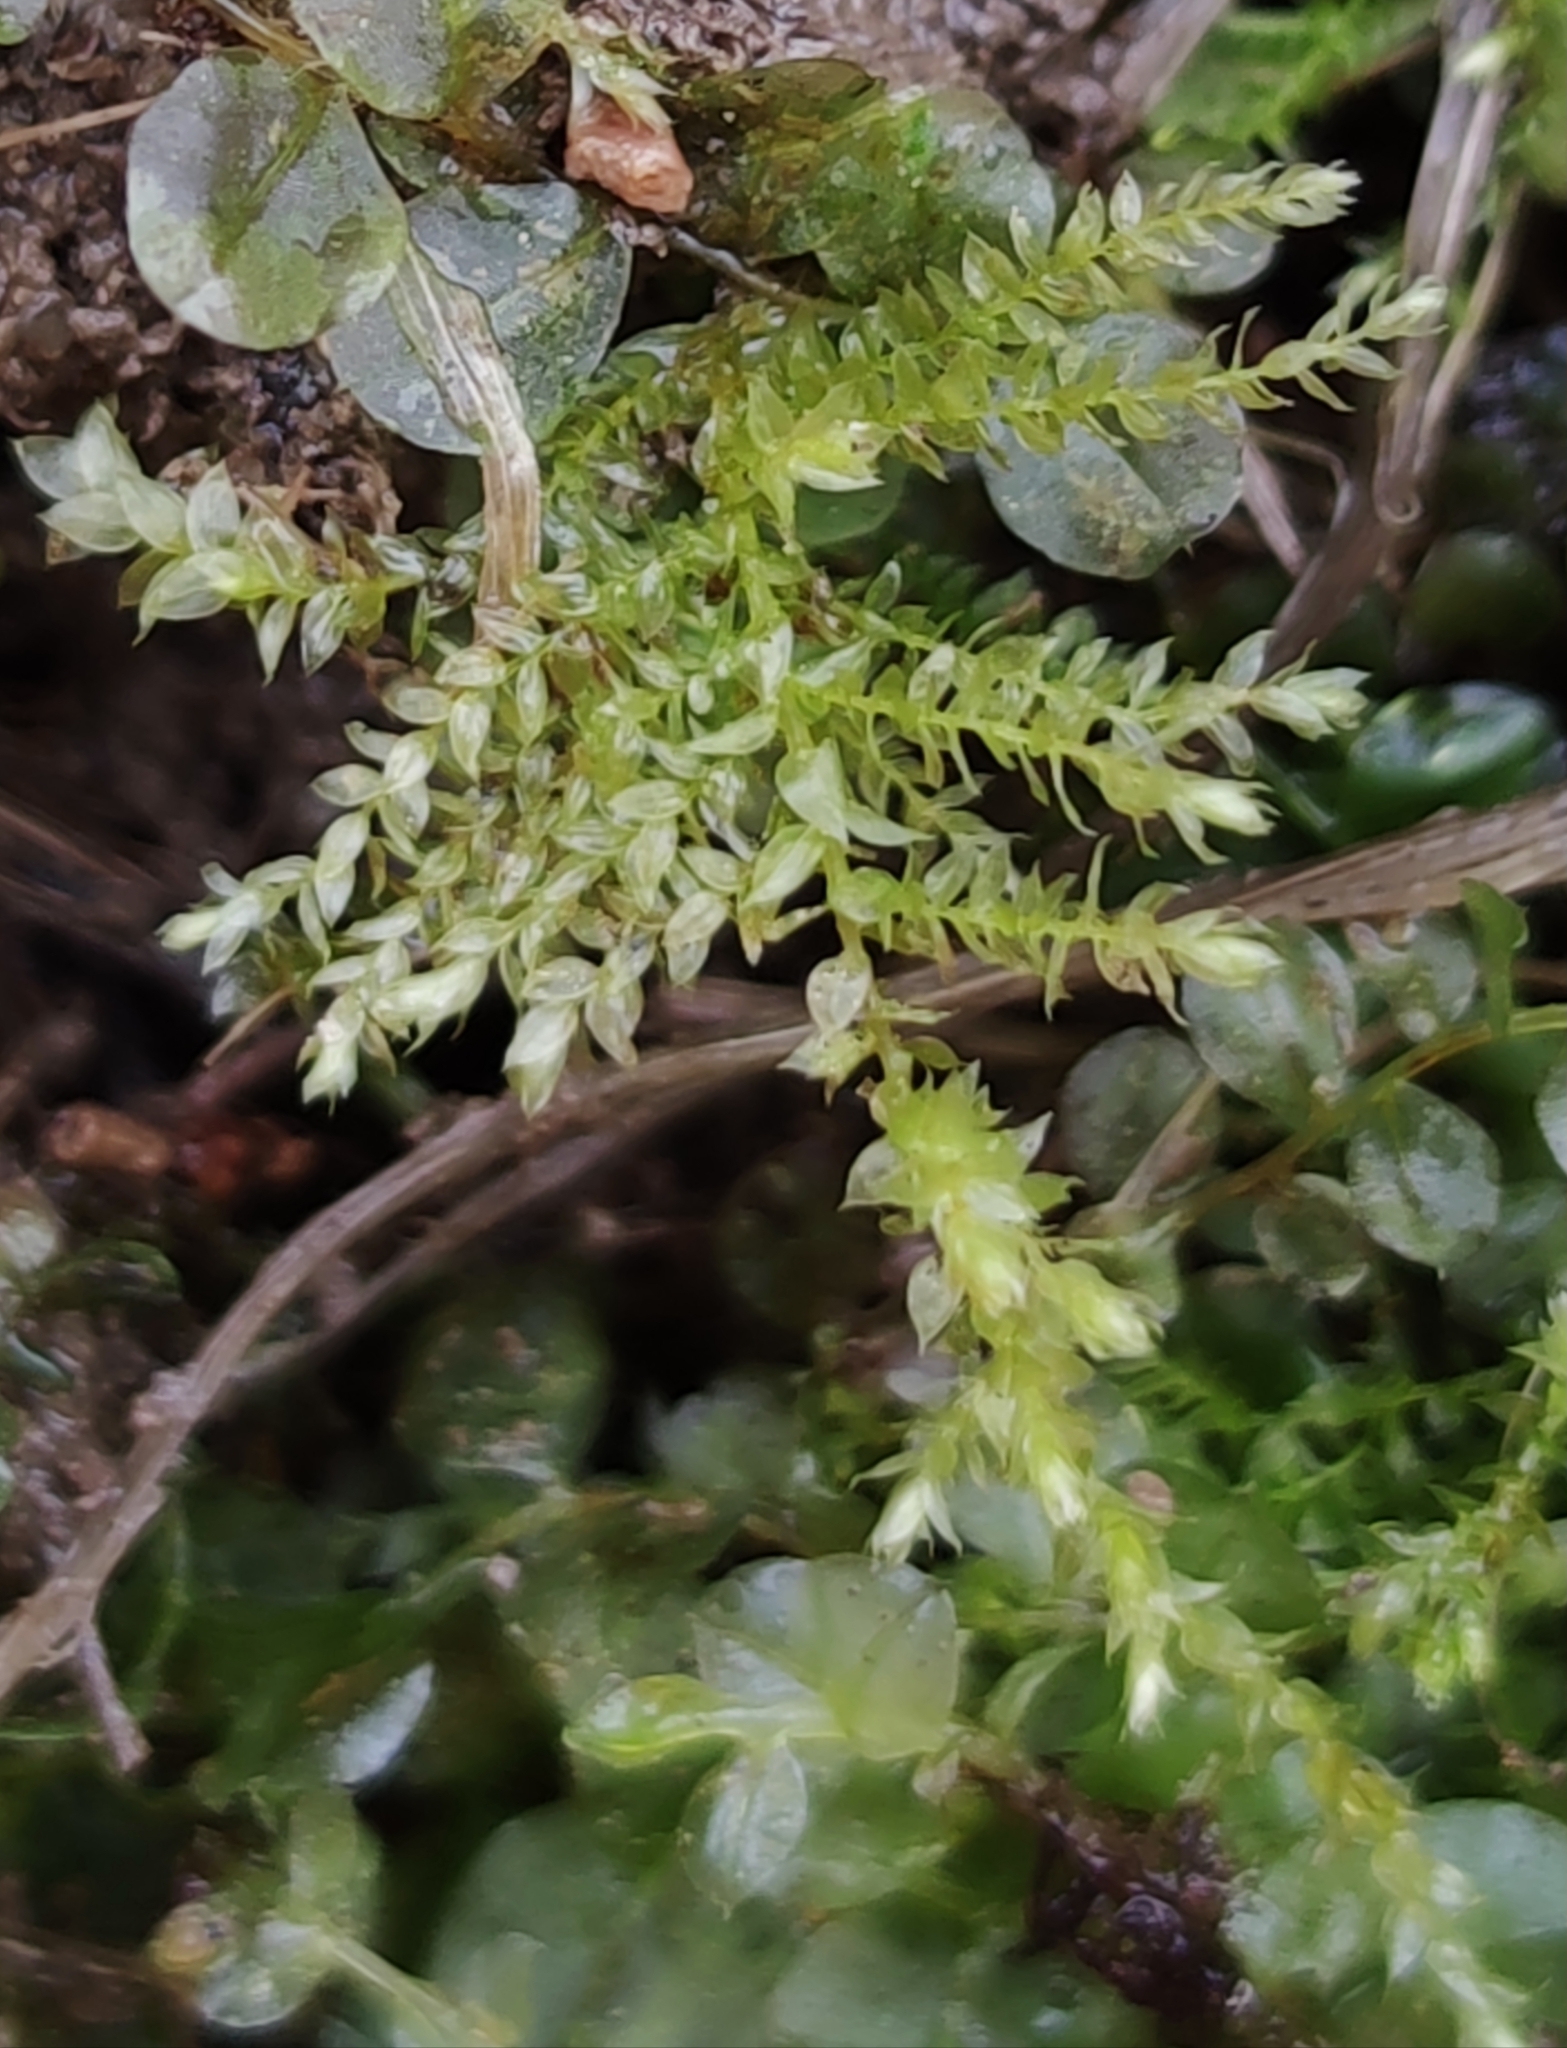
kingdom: Plantae
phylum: Bryophyta
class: Bryopsida
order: Hypnales
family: Brachytheciaceae
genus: Oxyrrhynchium
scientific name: Oxyrrhynchium hians
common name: Spreading beaked moss
